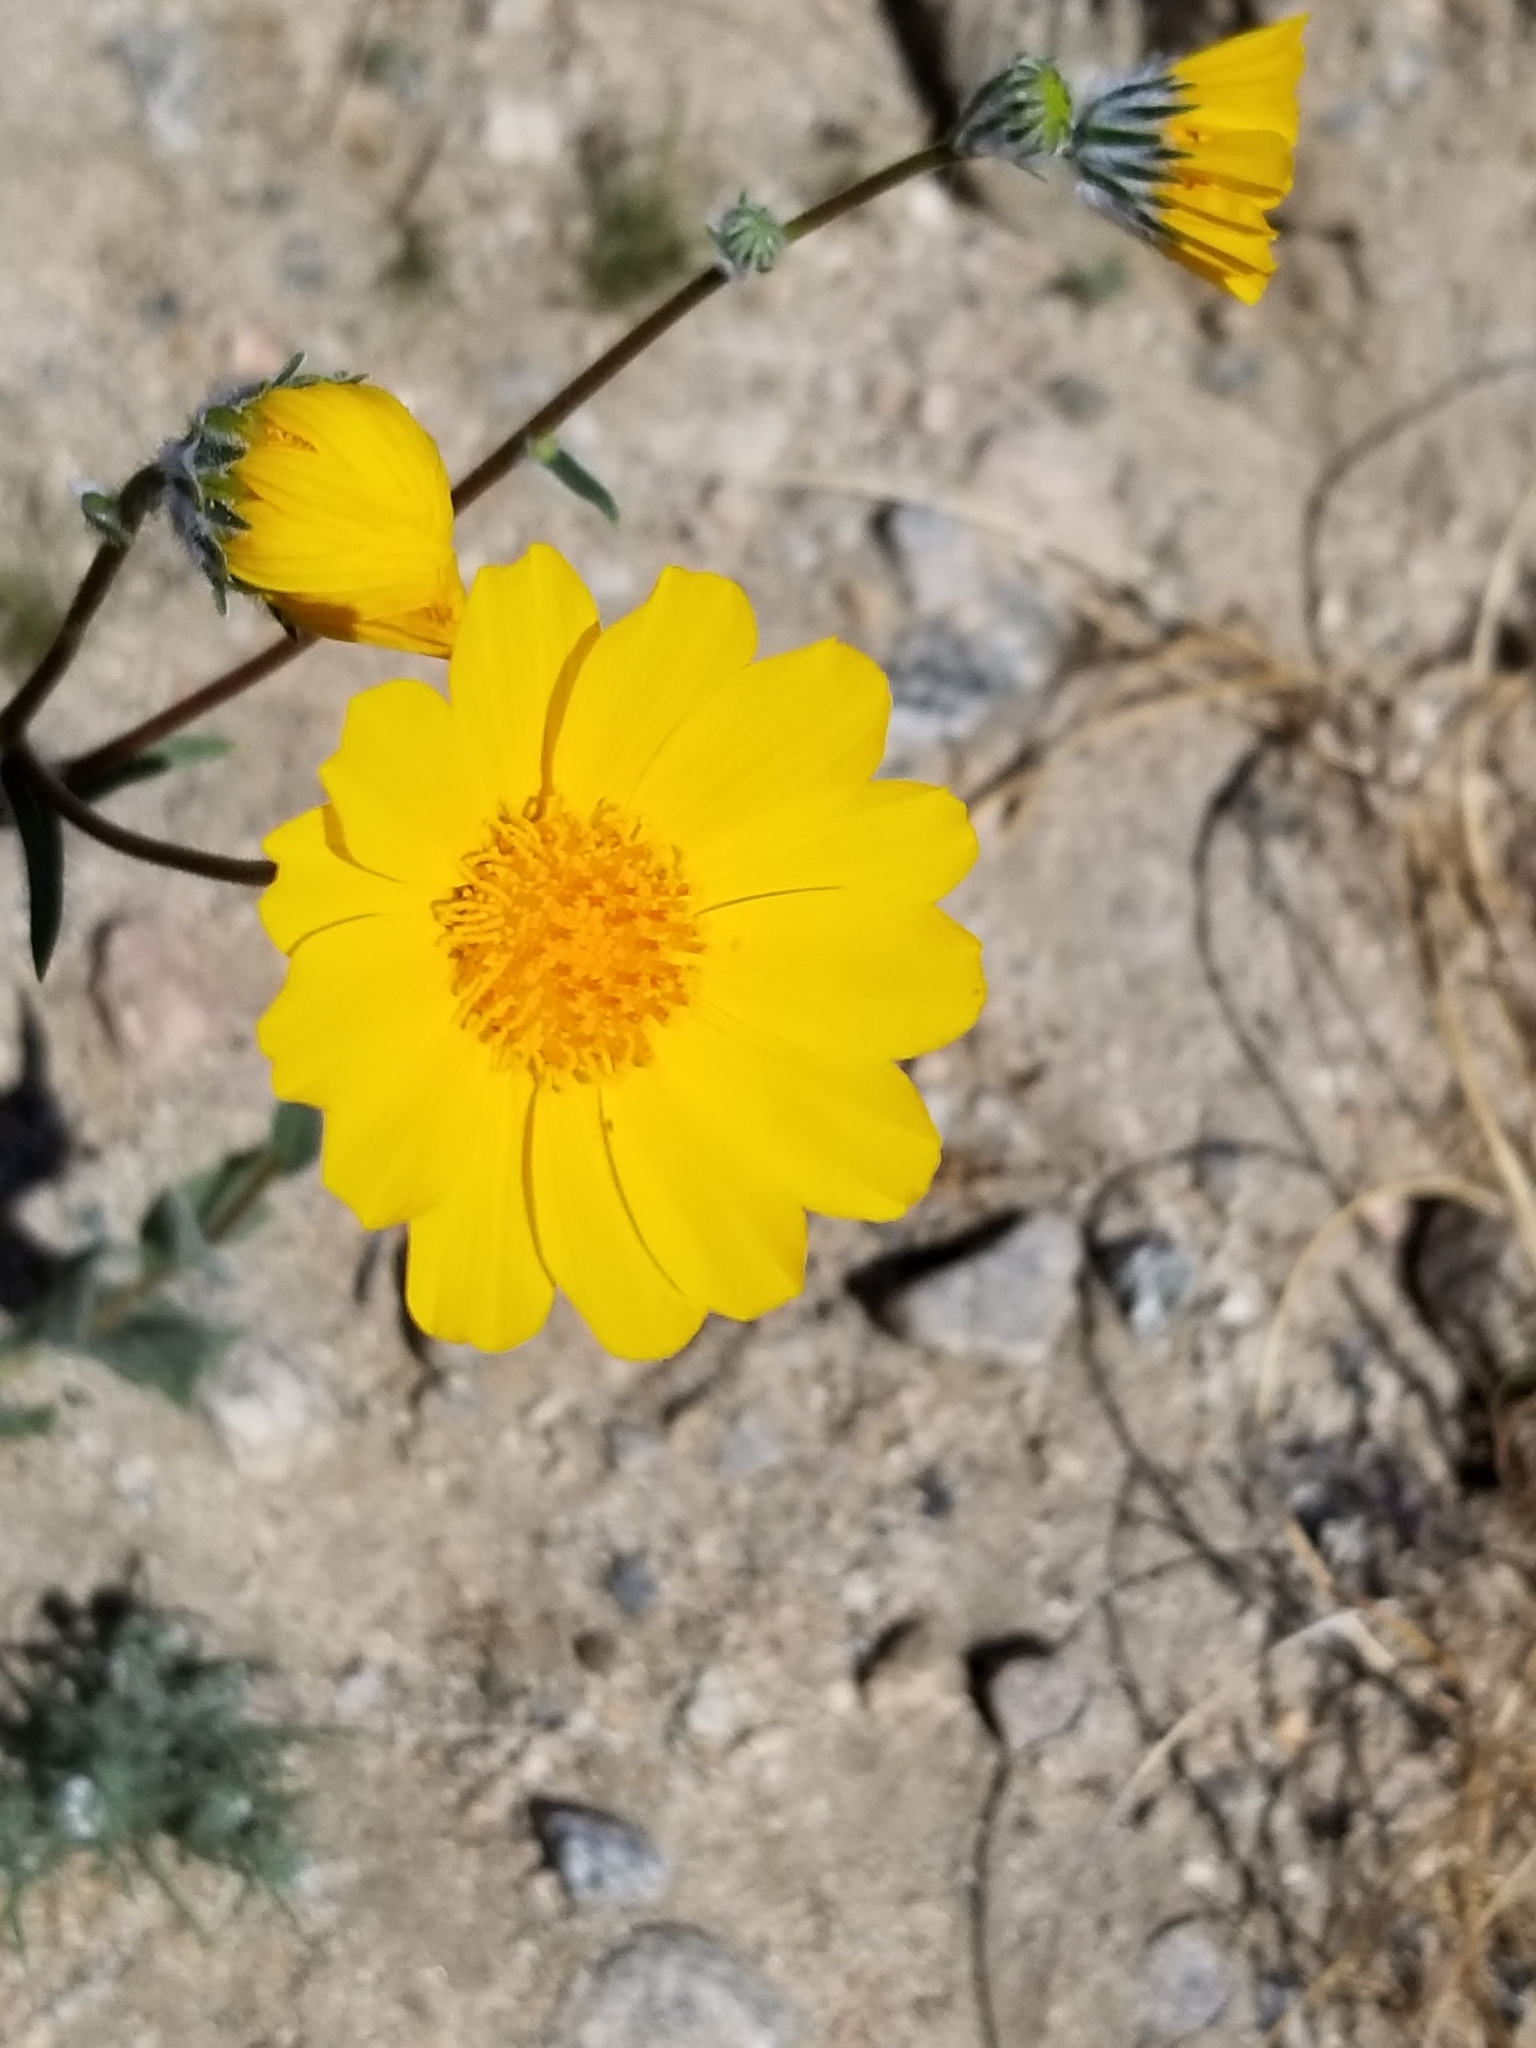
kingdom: Plantae
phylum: Tracheophyta
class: Magnoliopsida
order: Asterales
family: Asteraceae
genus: Geraea
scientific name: Geraea canescens
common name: Desert-gold
